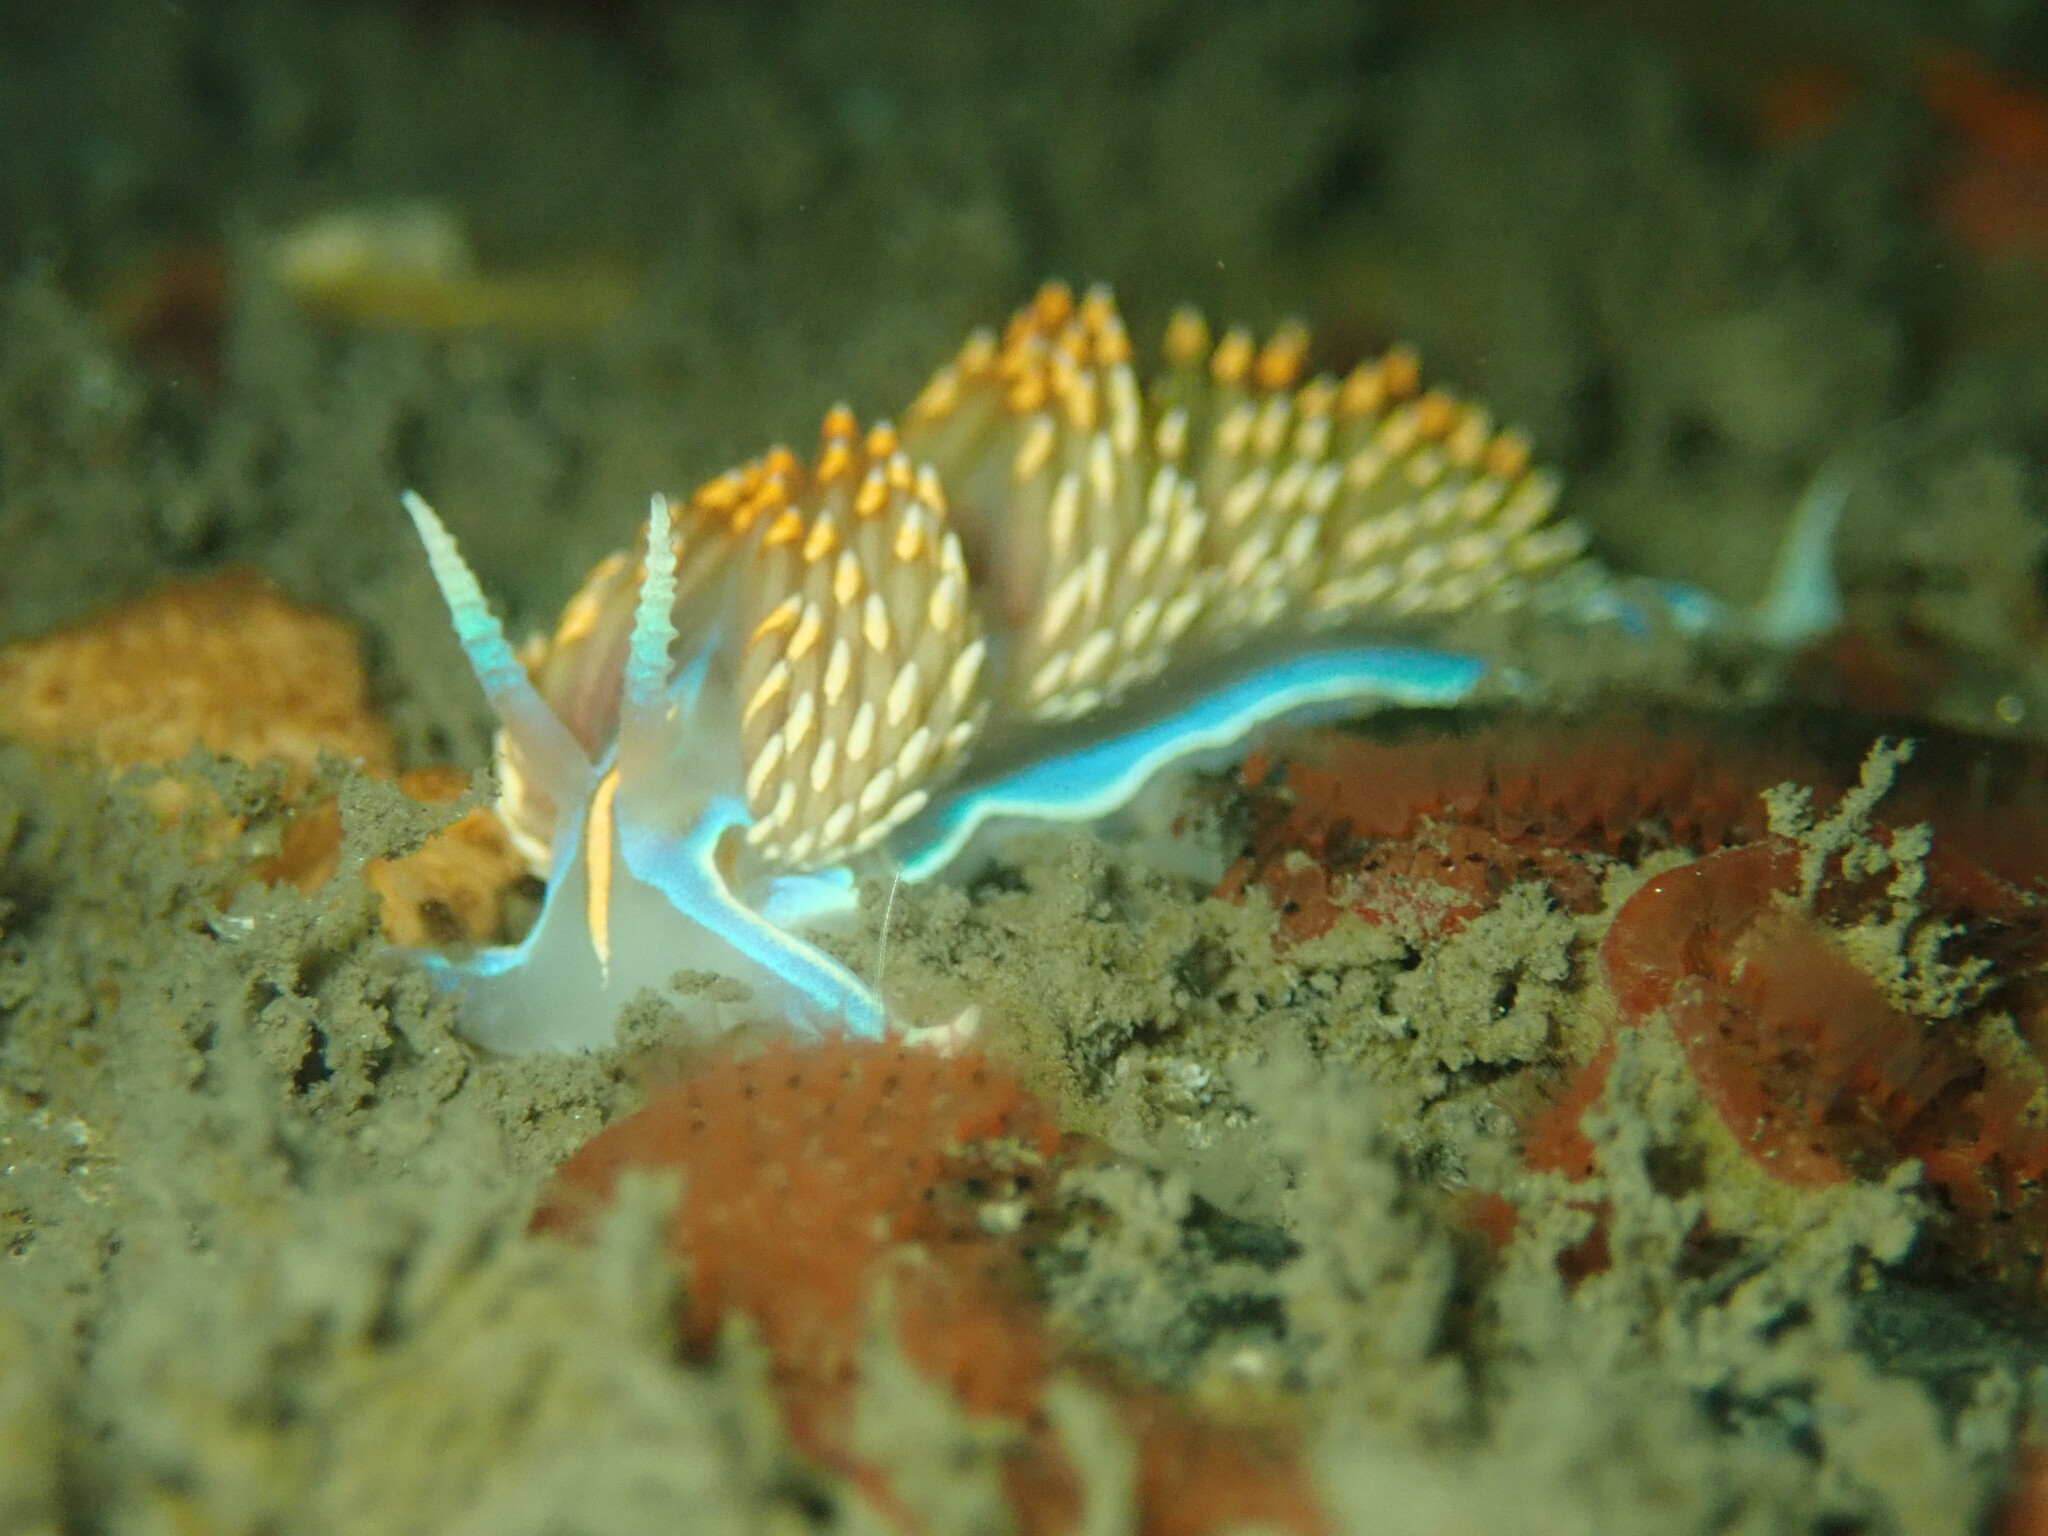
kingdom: Animalia
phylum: Mollusca
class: Gastropoda
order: Nudibranchia
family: Myrrhinidae
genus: Hermissenda
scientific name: Hermissenda opalescens
